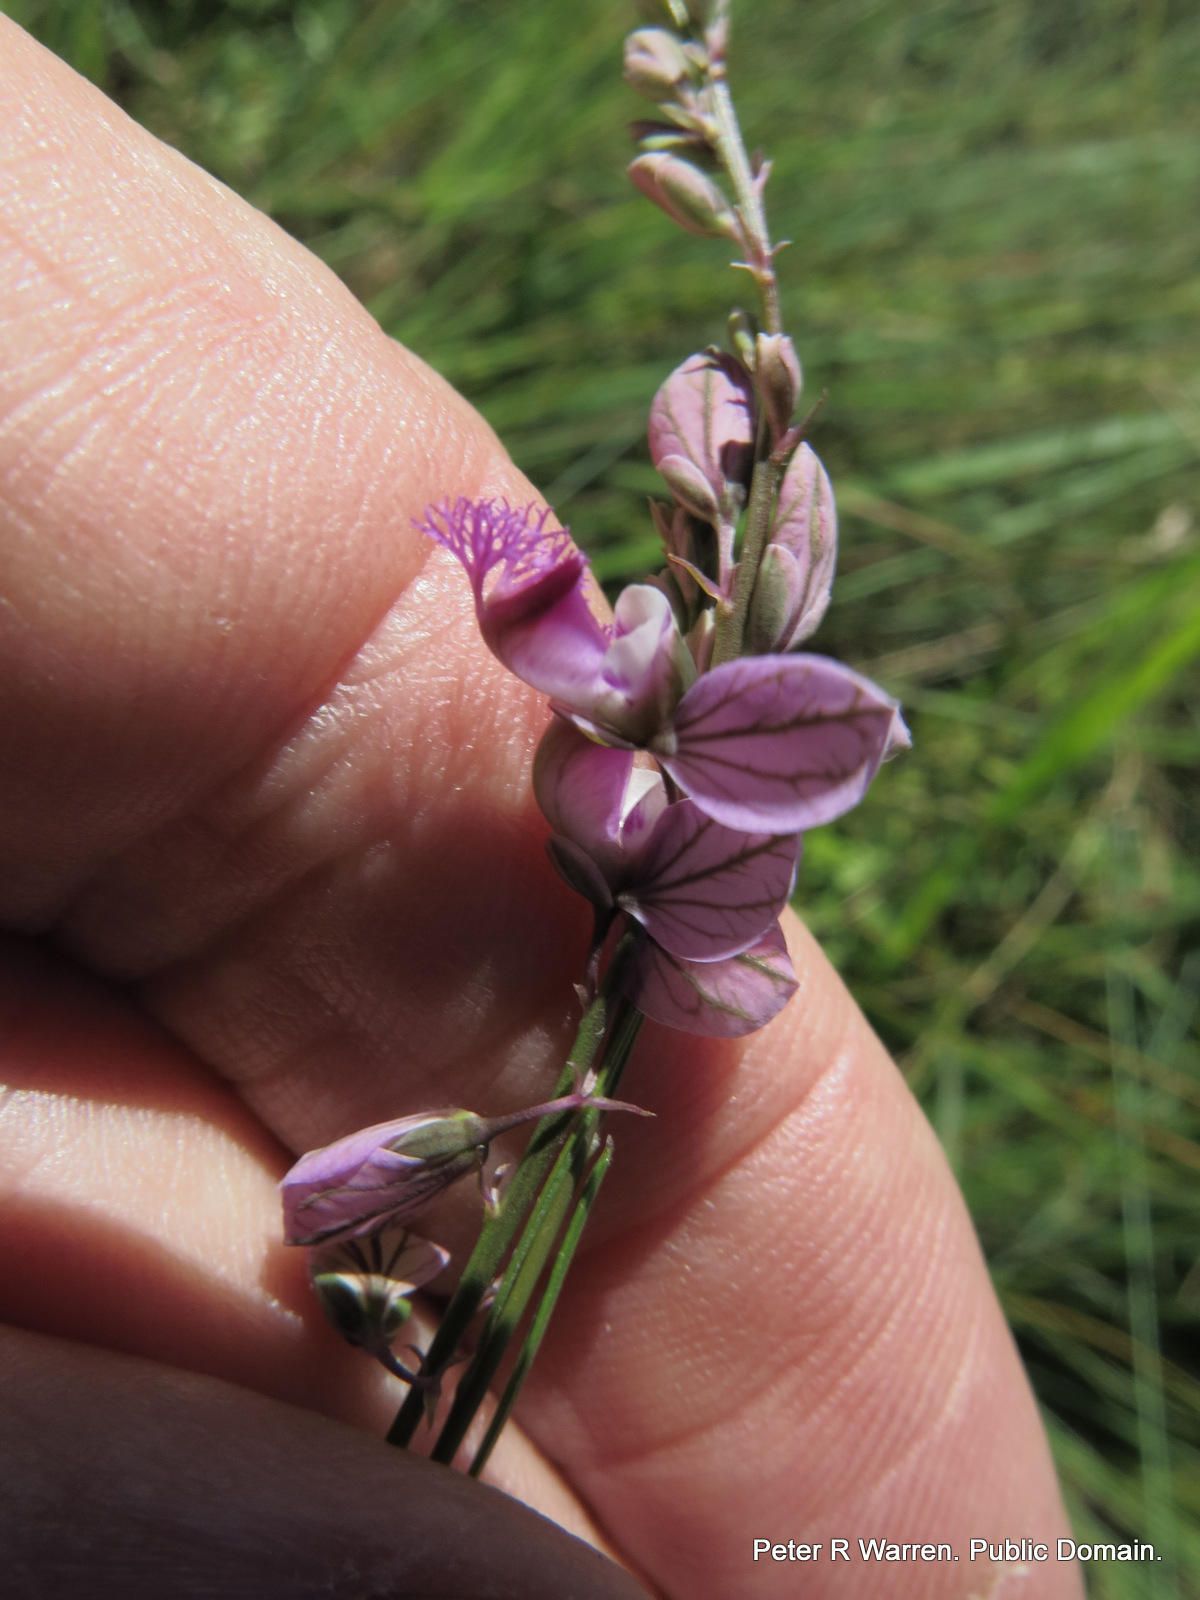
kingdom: Plantae
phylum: Tracheophyta
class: Magnoliopsida
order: Fabales
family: Polygalaceae
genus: Polygala
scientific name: Polygala hottentotta
